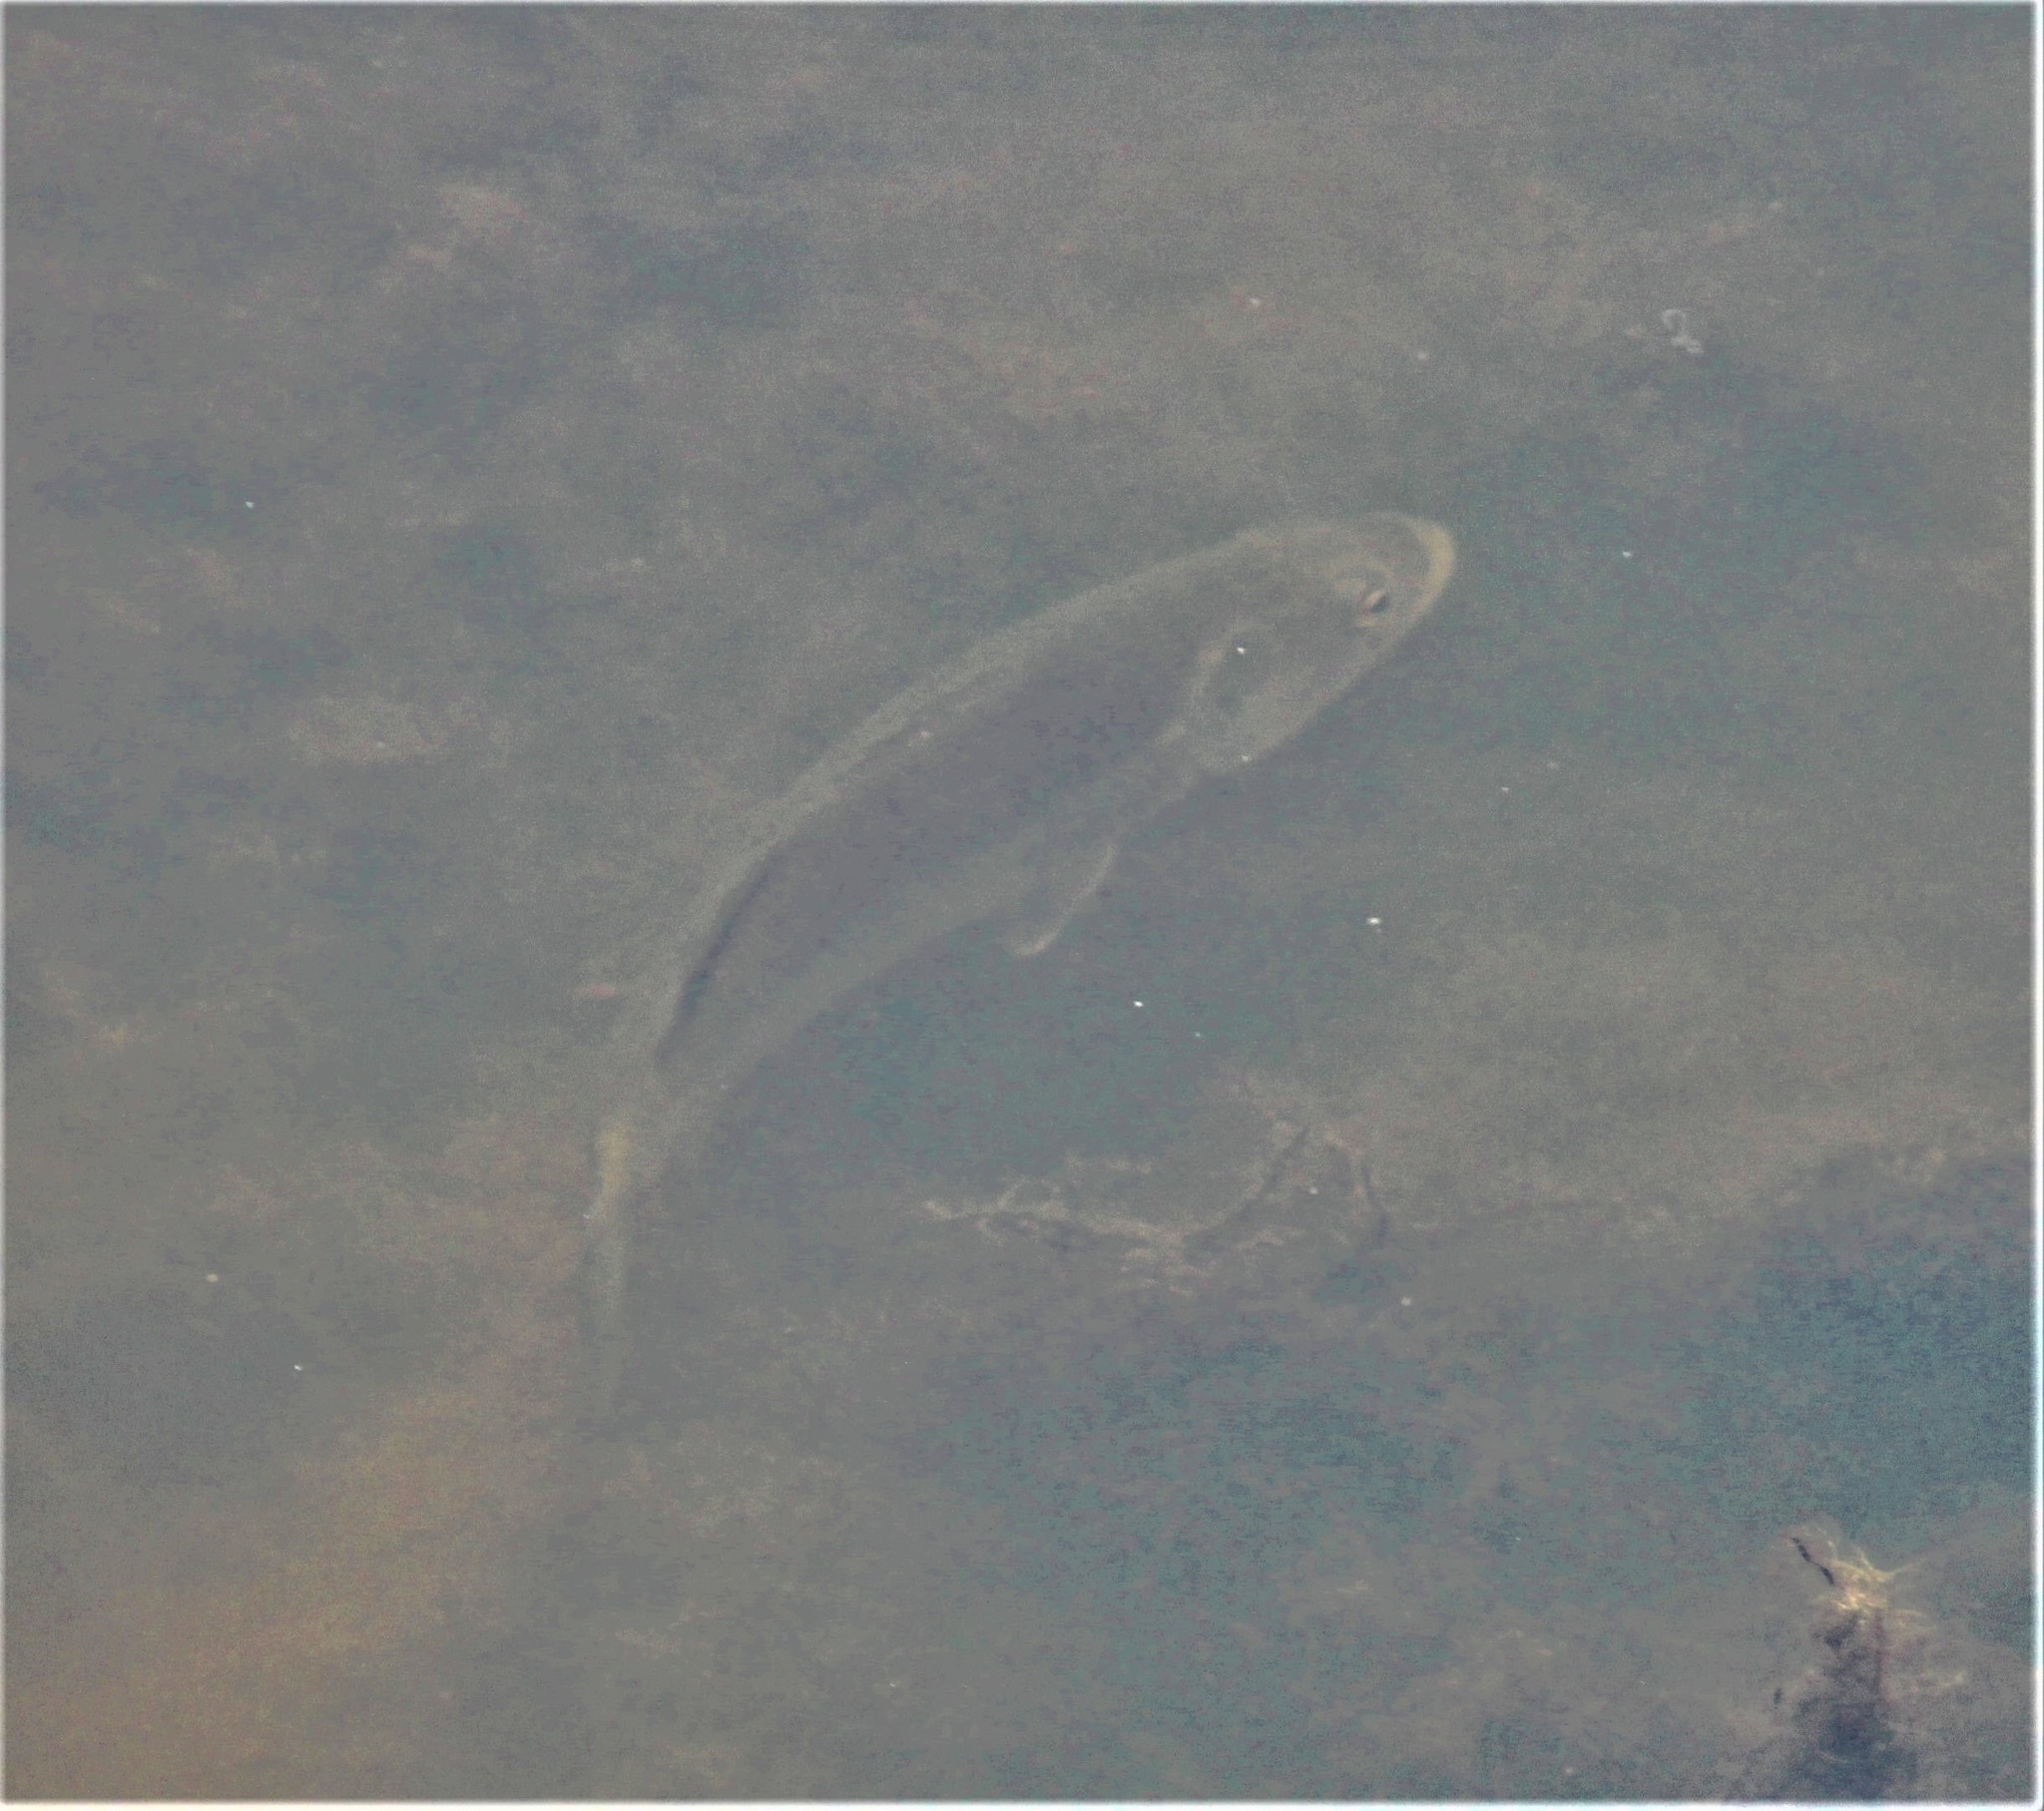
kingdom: Animalia
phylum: Chordata
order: Perciformes
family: Centrarchidae
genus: Micropterus
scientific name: Micropterus salmoides
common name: Largemouth bass
